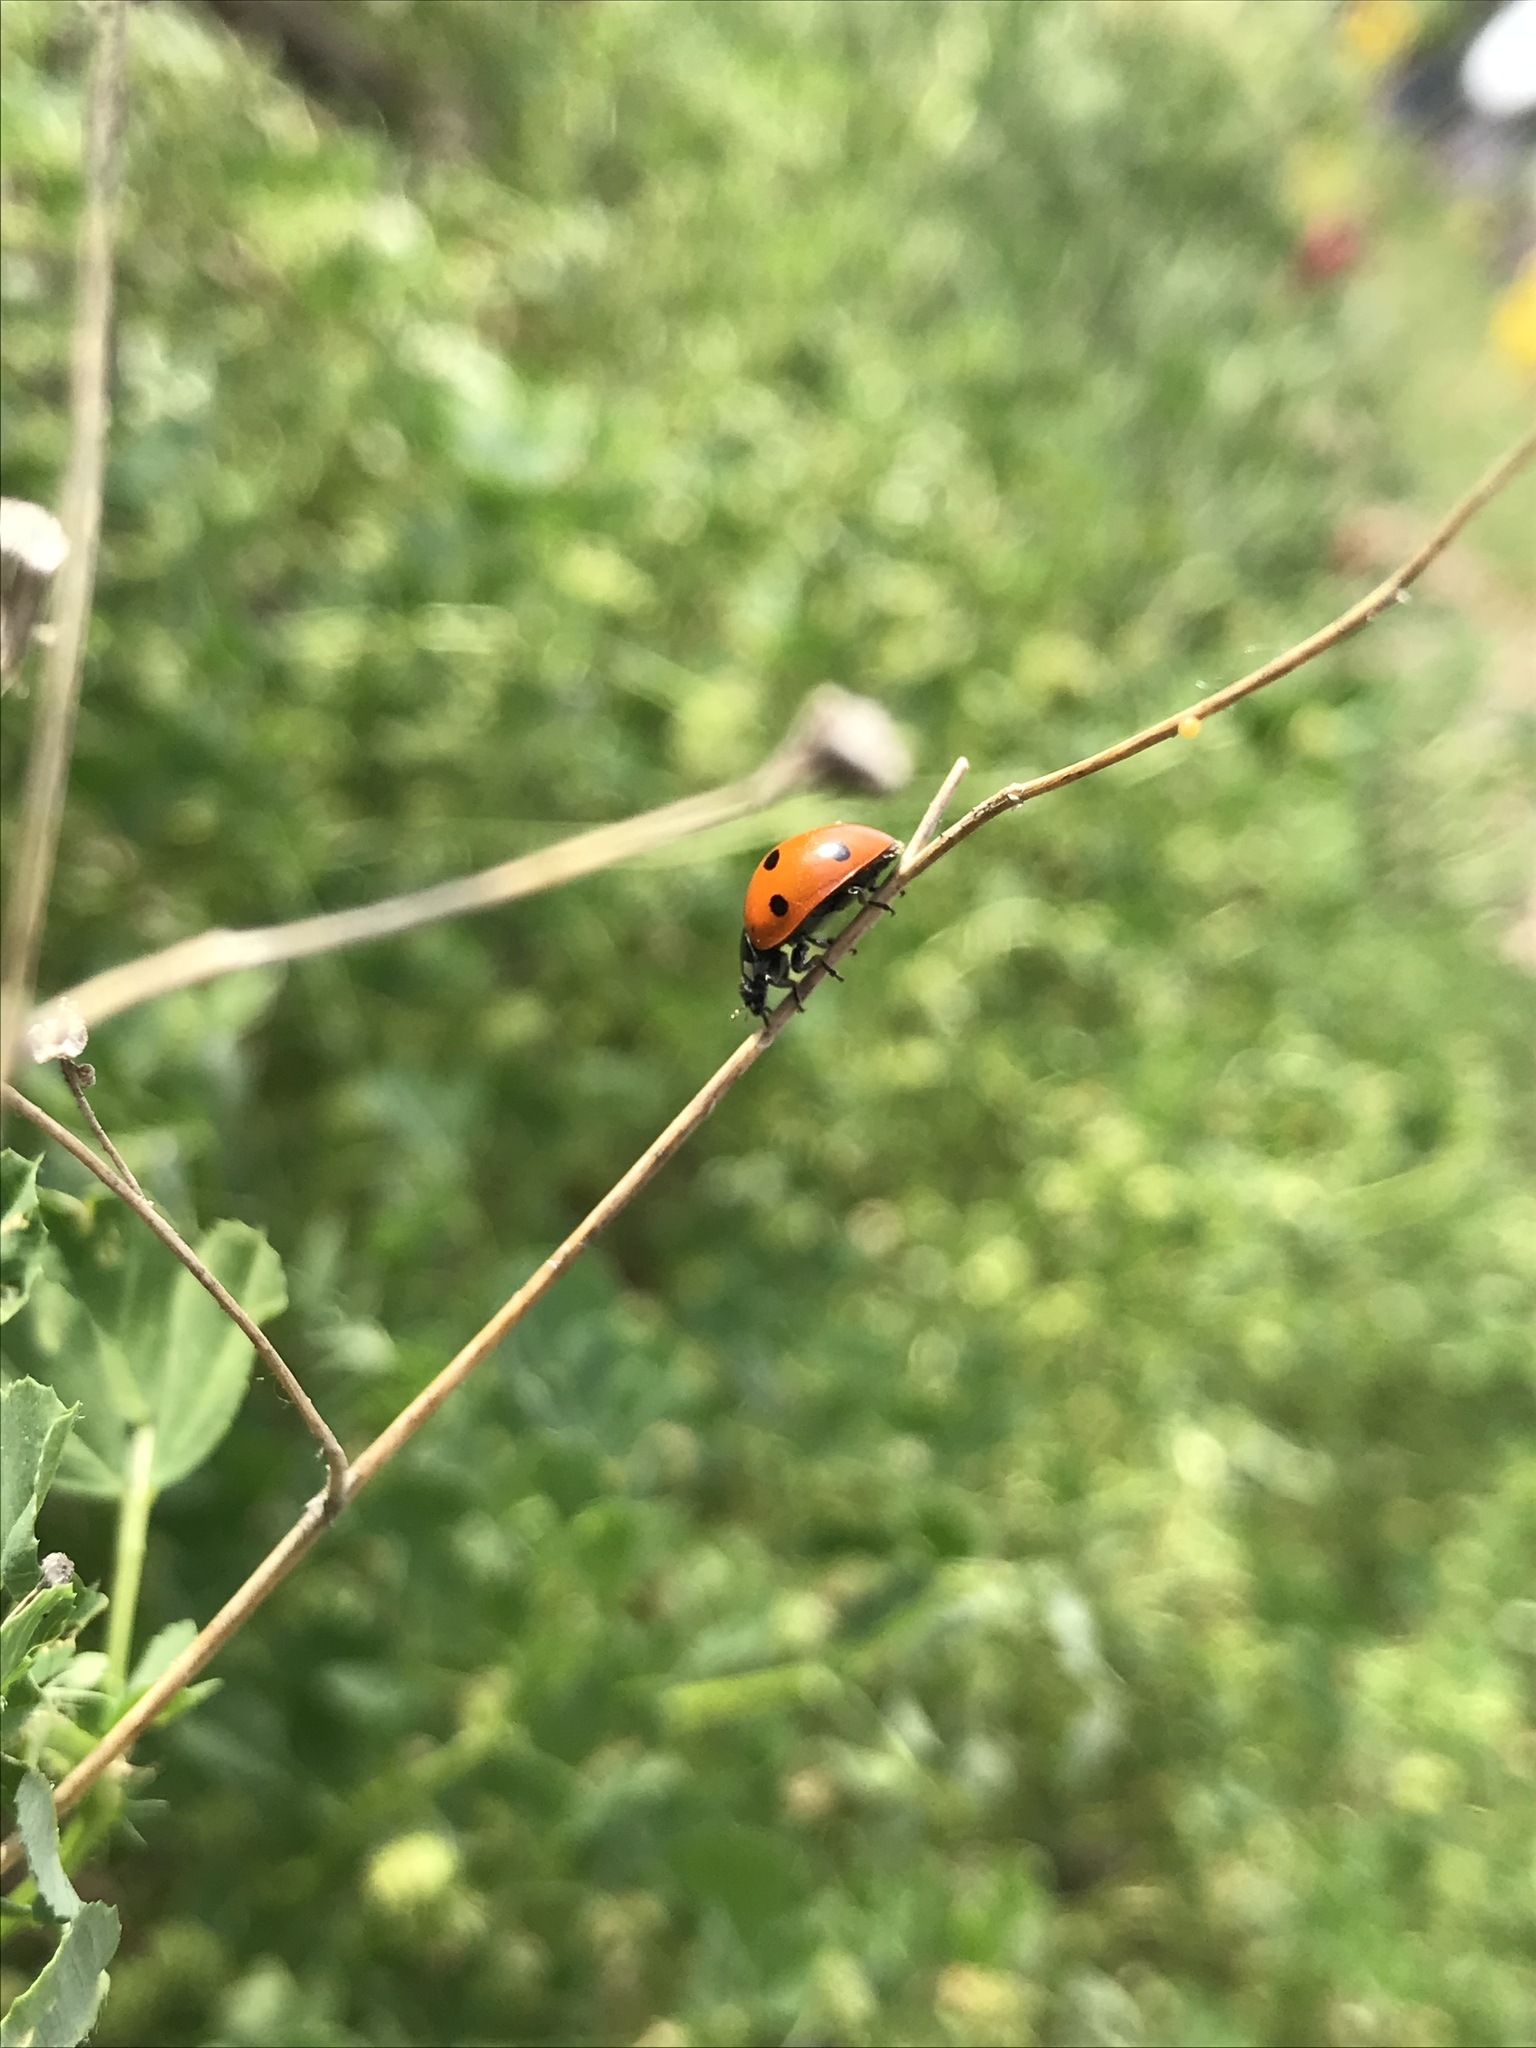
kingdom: Animalia
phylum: Arthropoda
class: Insecta
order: Coleoptera
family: Coccinellidae
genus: Coccinella
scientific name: Coccinella septempunctata
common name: Sevenspotted lady beetle
